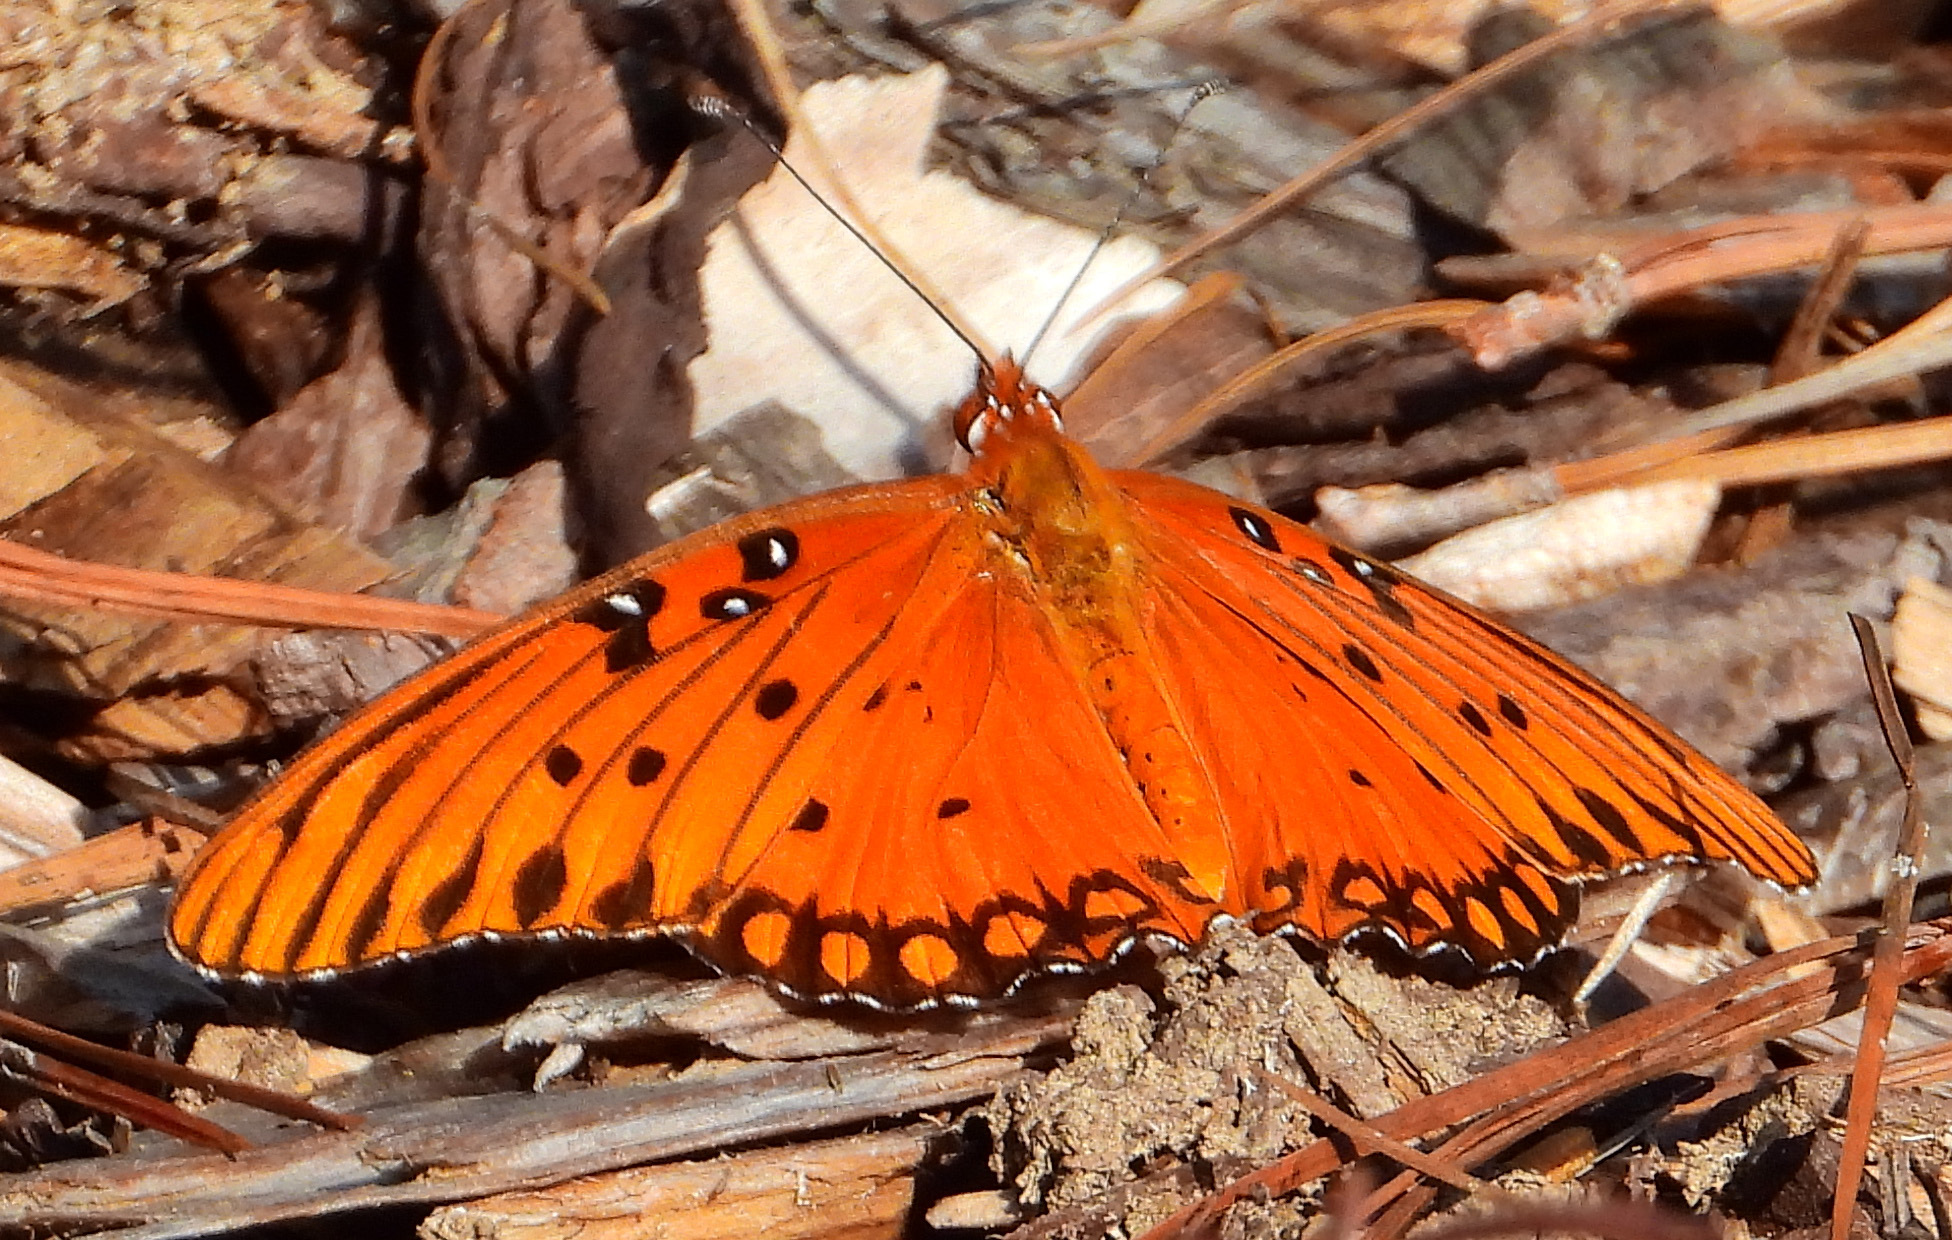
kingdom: Animalia
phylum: Arthropoda
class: Insecta
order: Lepidoptera
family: Nymphalidae
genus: Dione
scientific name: Dione vanillae
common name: Gulf fritillary
